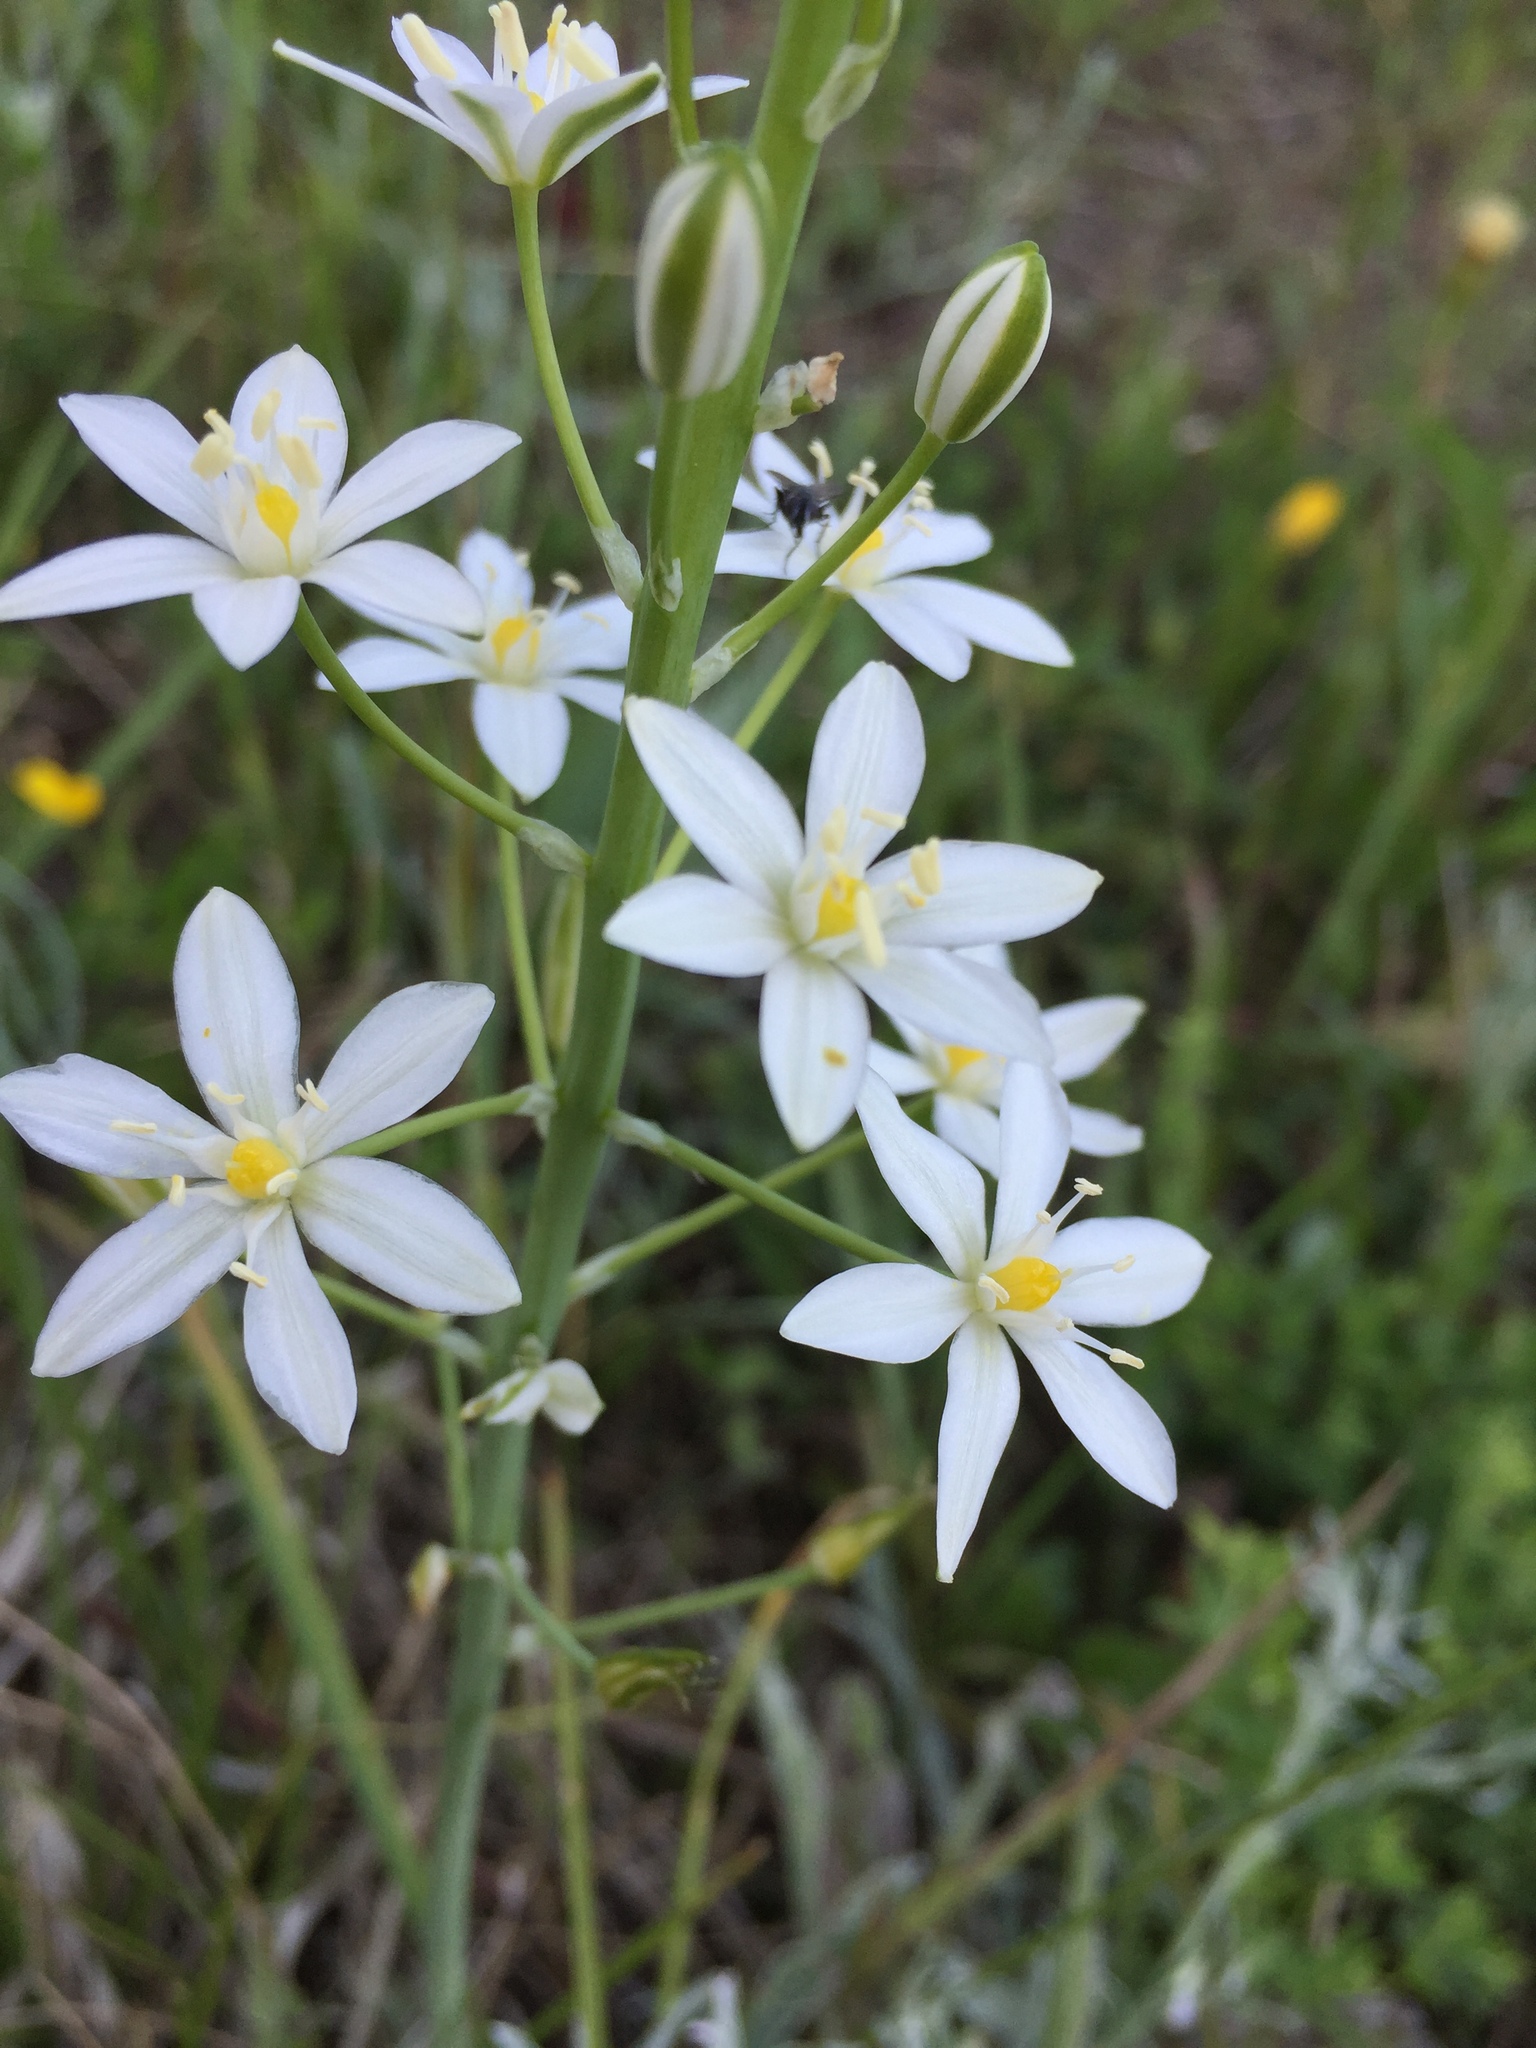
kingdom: Plantae
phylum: Tracheophyta
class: Liliopsida
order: Asparagales
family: Asparagaceae
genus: Ornithogalum
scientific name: Ornithogalum pyramidale
